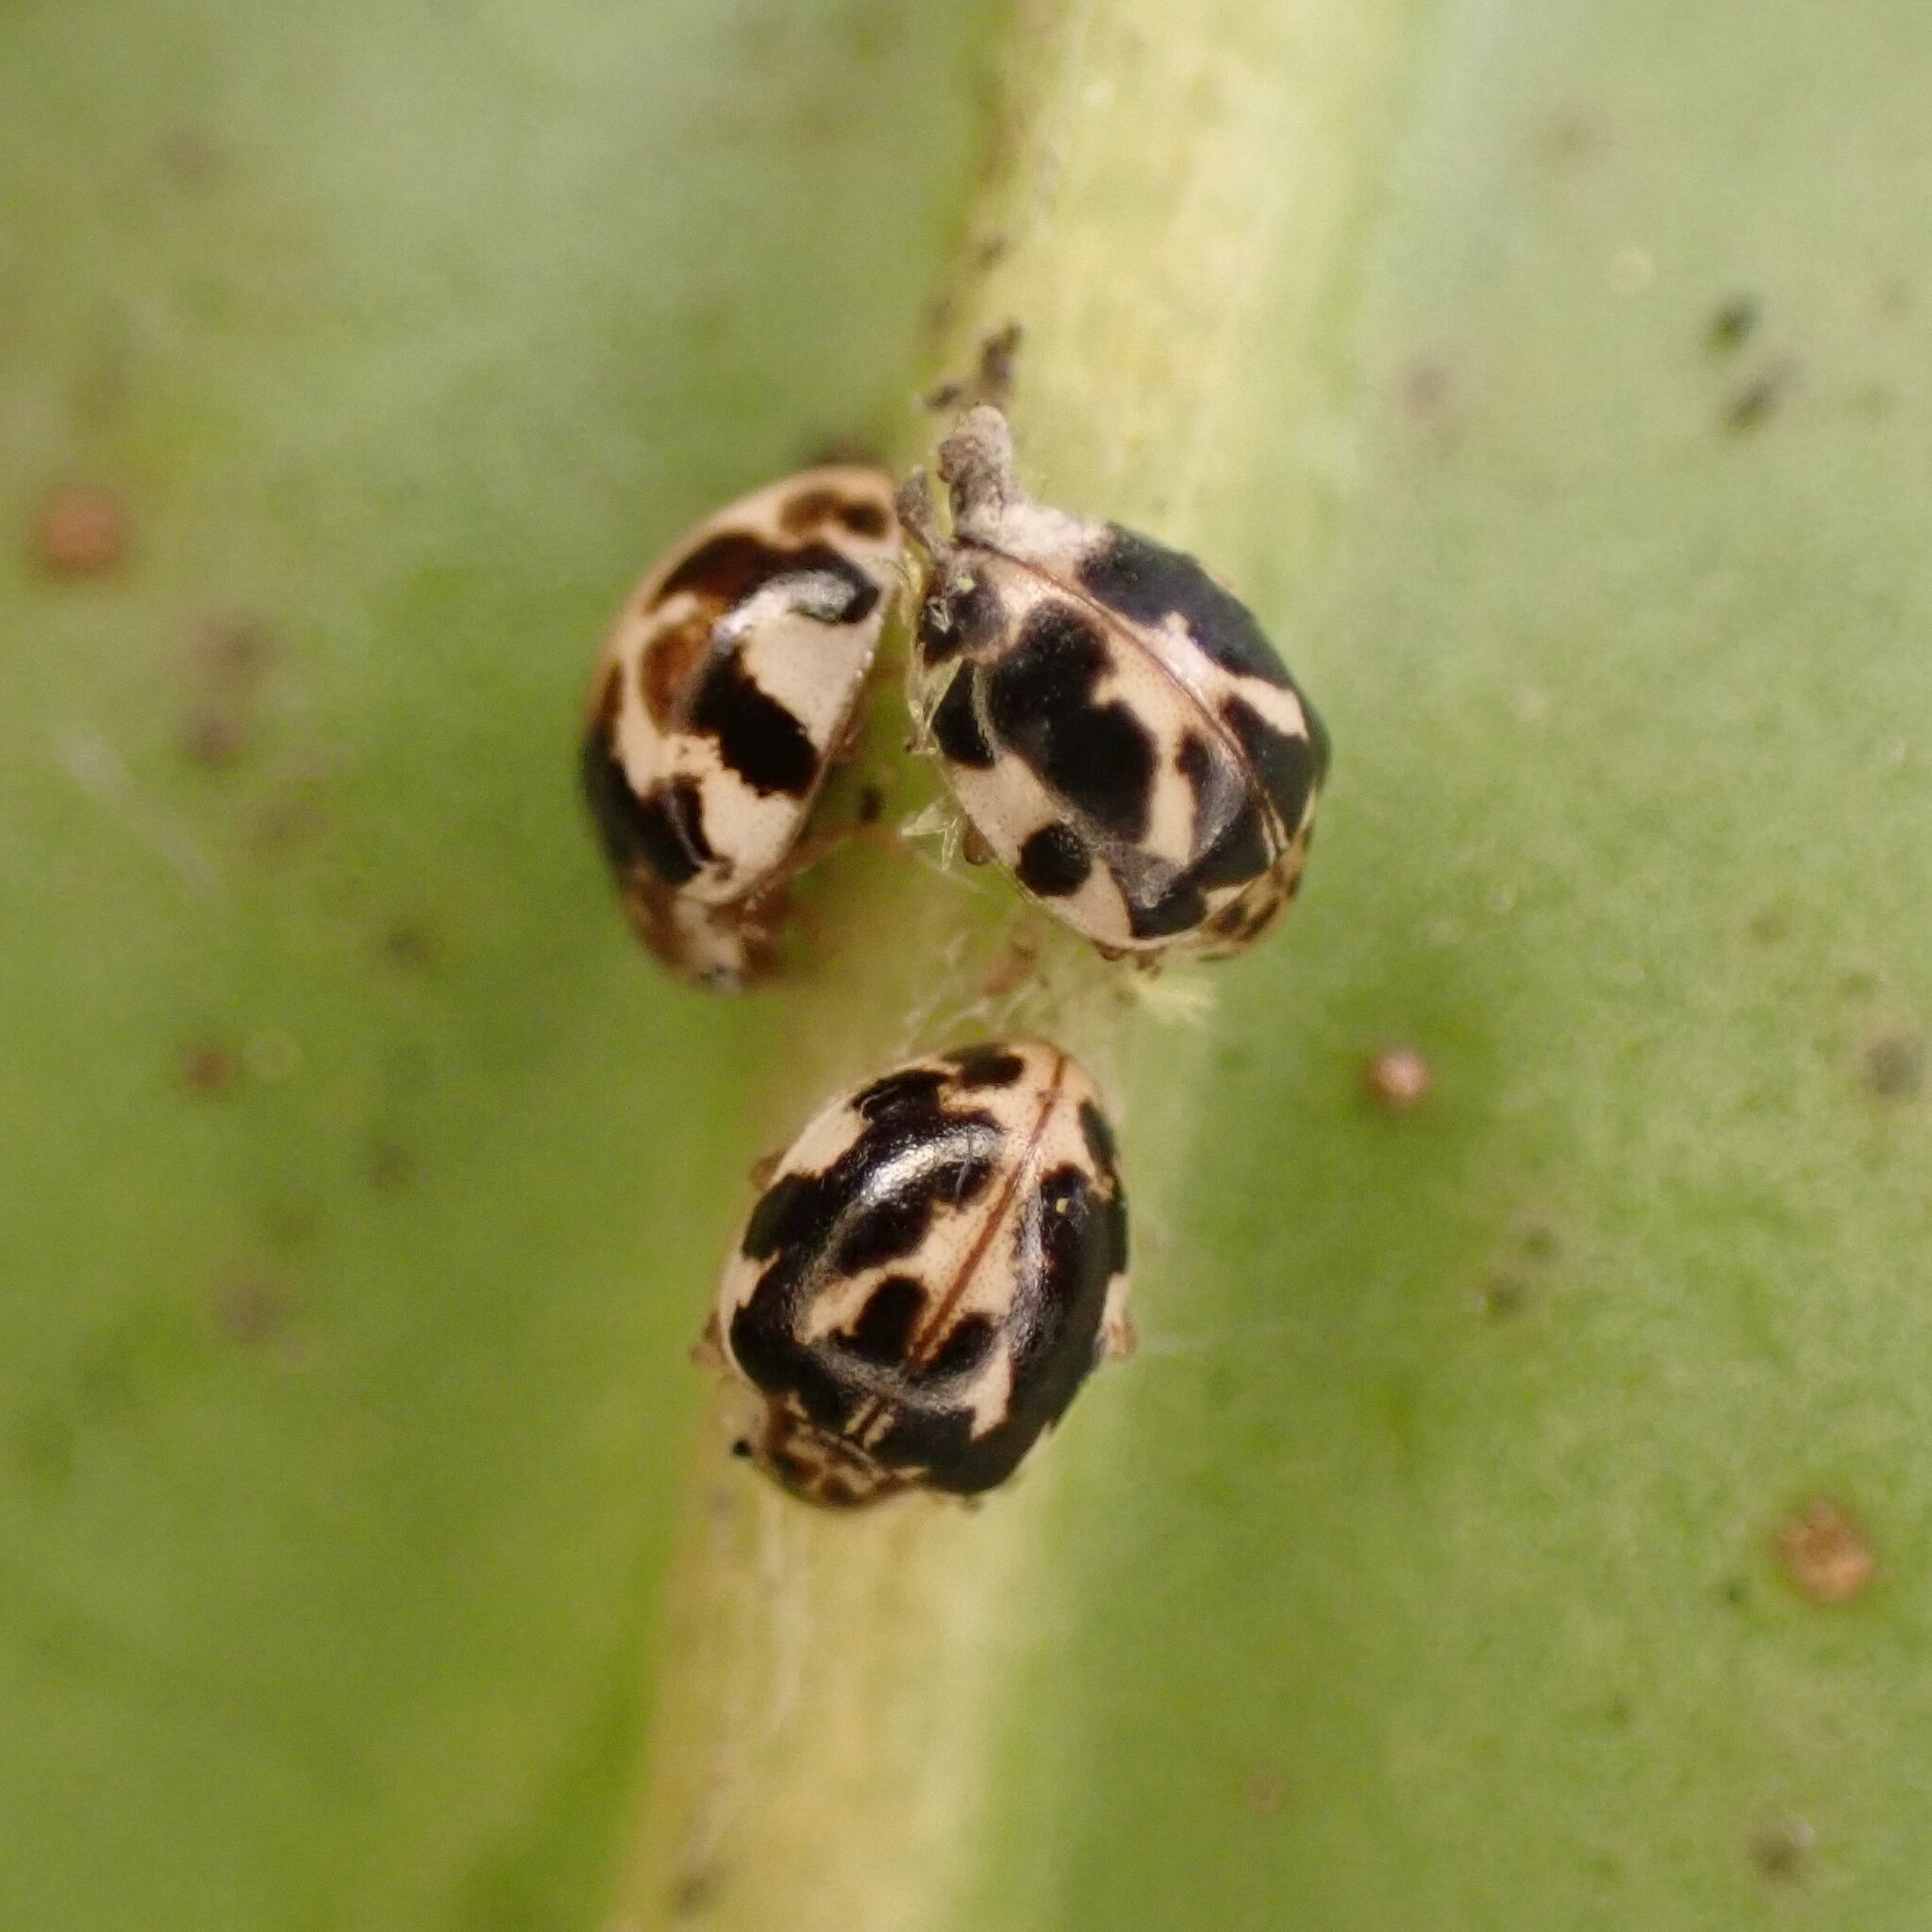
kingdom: Animalia
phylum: Arthropoda
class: Insecta
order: Coleoptera
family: Coccinellidae
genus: Psyllobora
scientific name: Psyllobora vigintimaculata
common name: Ladybird beetle
